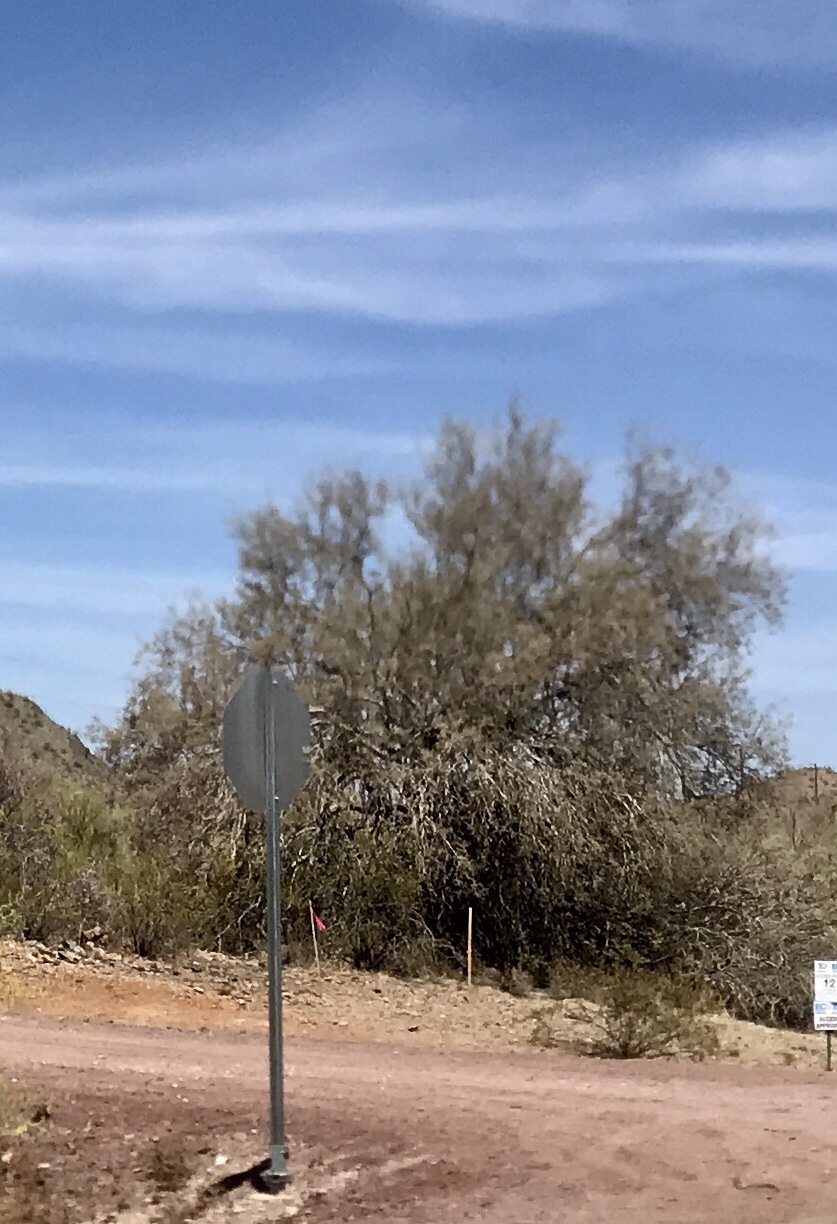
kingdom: Plantae
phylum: Tracheophyta
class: Magnoliopsida
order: Fabales
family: Fabaceae
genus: Olneya
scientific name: Olneya tesota
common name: Desert ironwood
